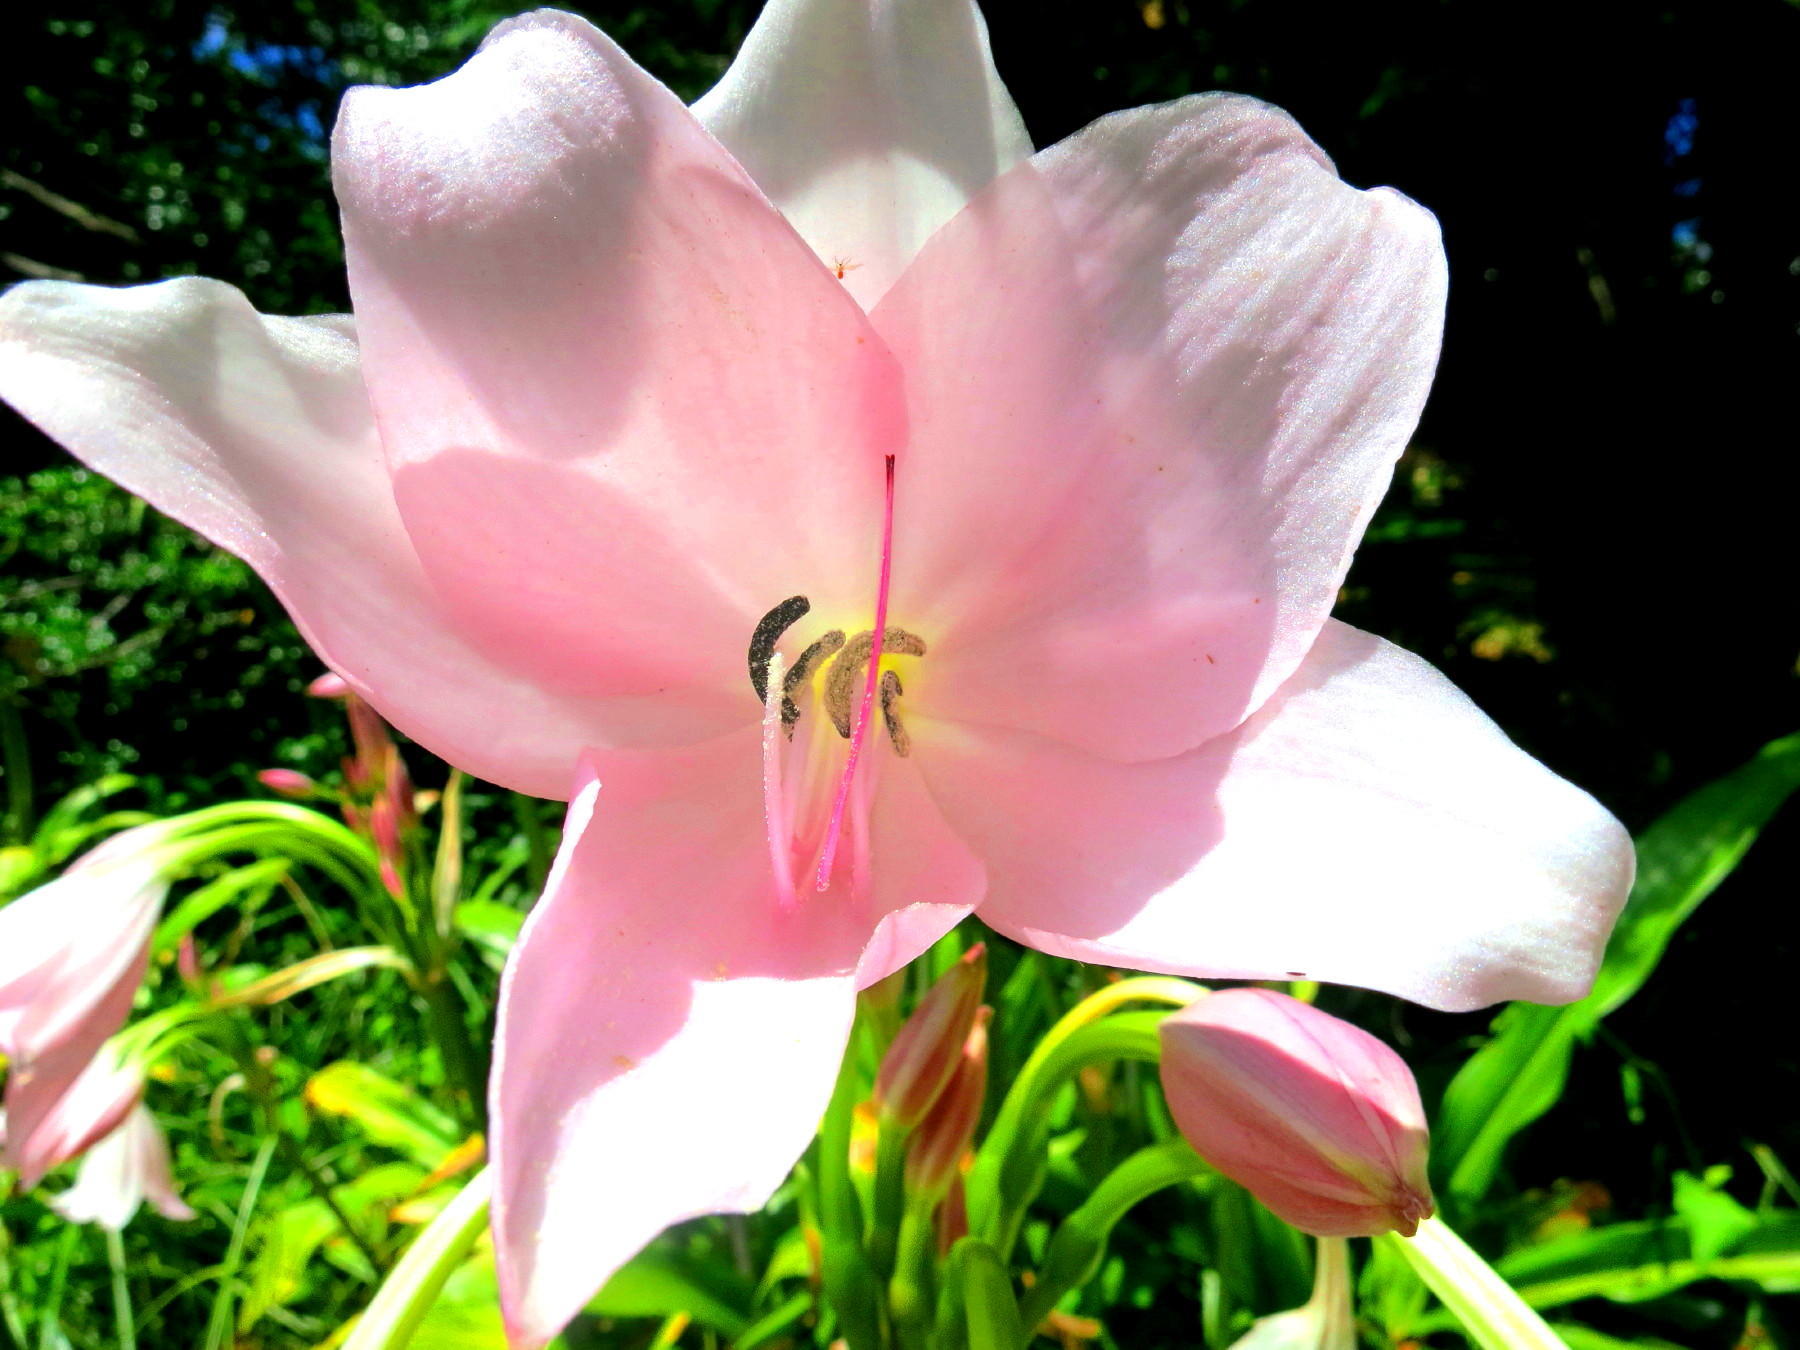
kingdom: Plantae
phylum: Tracheophyta
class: Liliopsida
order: Asparagales
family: Amaryllidaceae
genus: Crinum
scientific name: Crinum moorei
